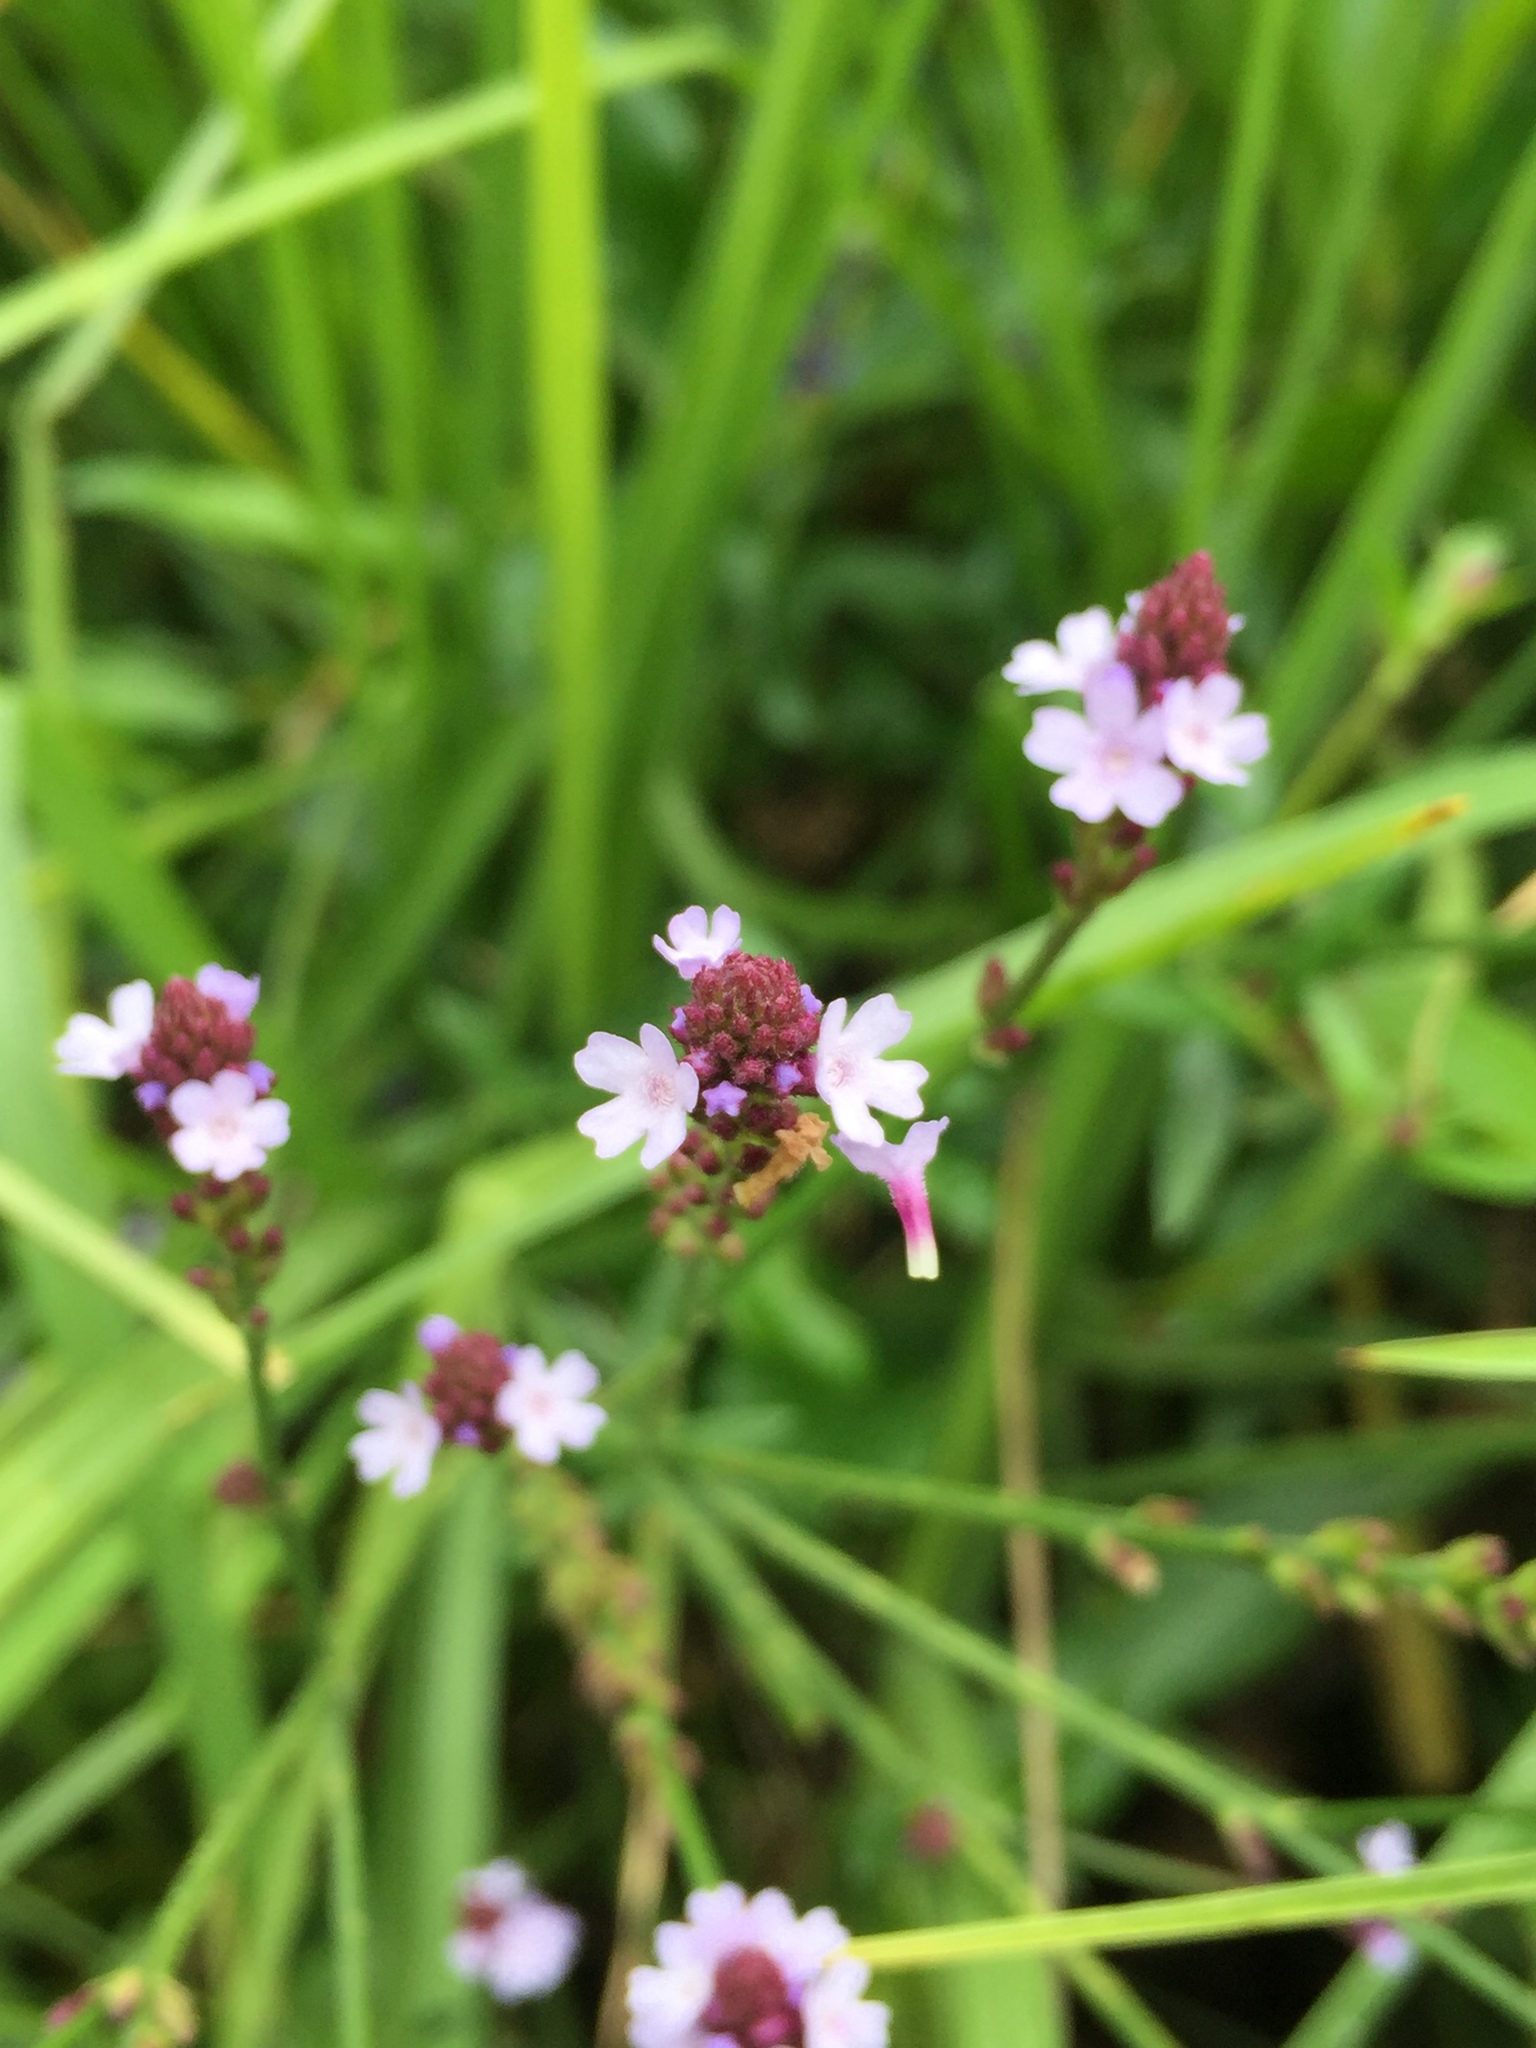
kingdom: Plantae
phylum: Tracheophyta
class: Magnoliopsida
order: Lamiales
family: Verbenaceae
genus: Verbena
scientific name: Verbena litoralis
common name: Seashore vervain
